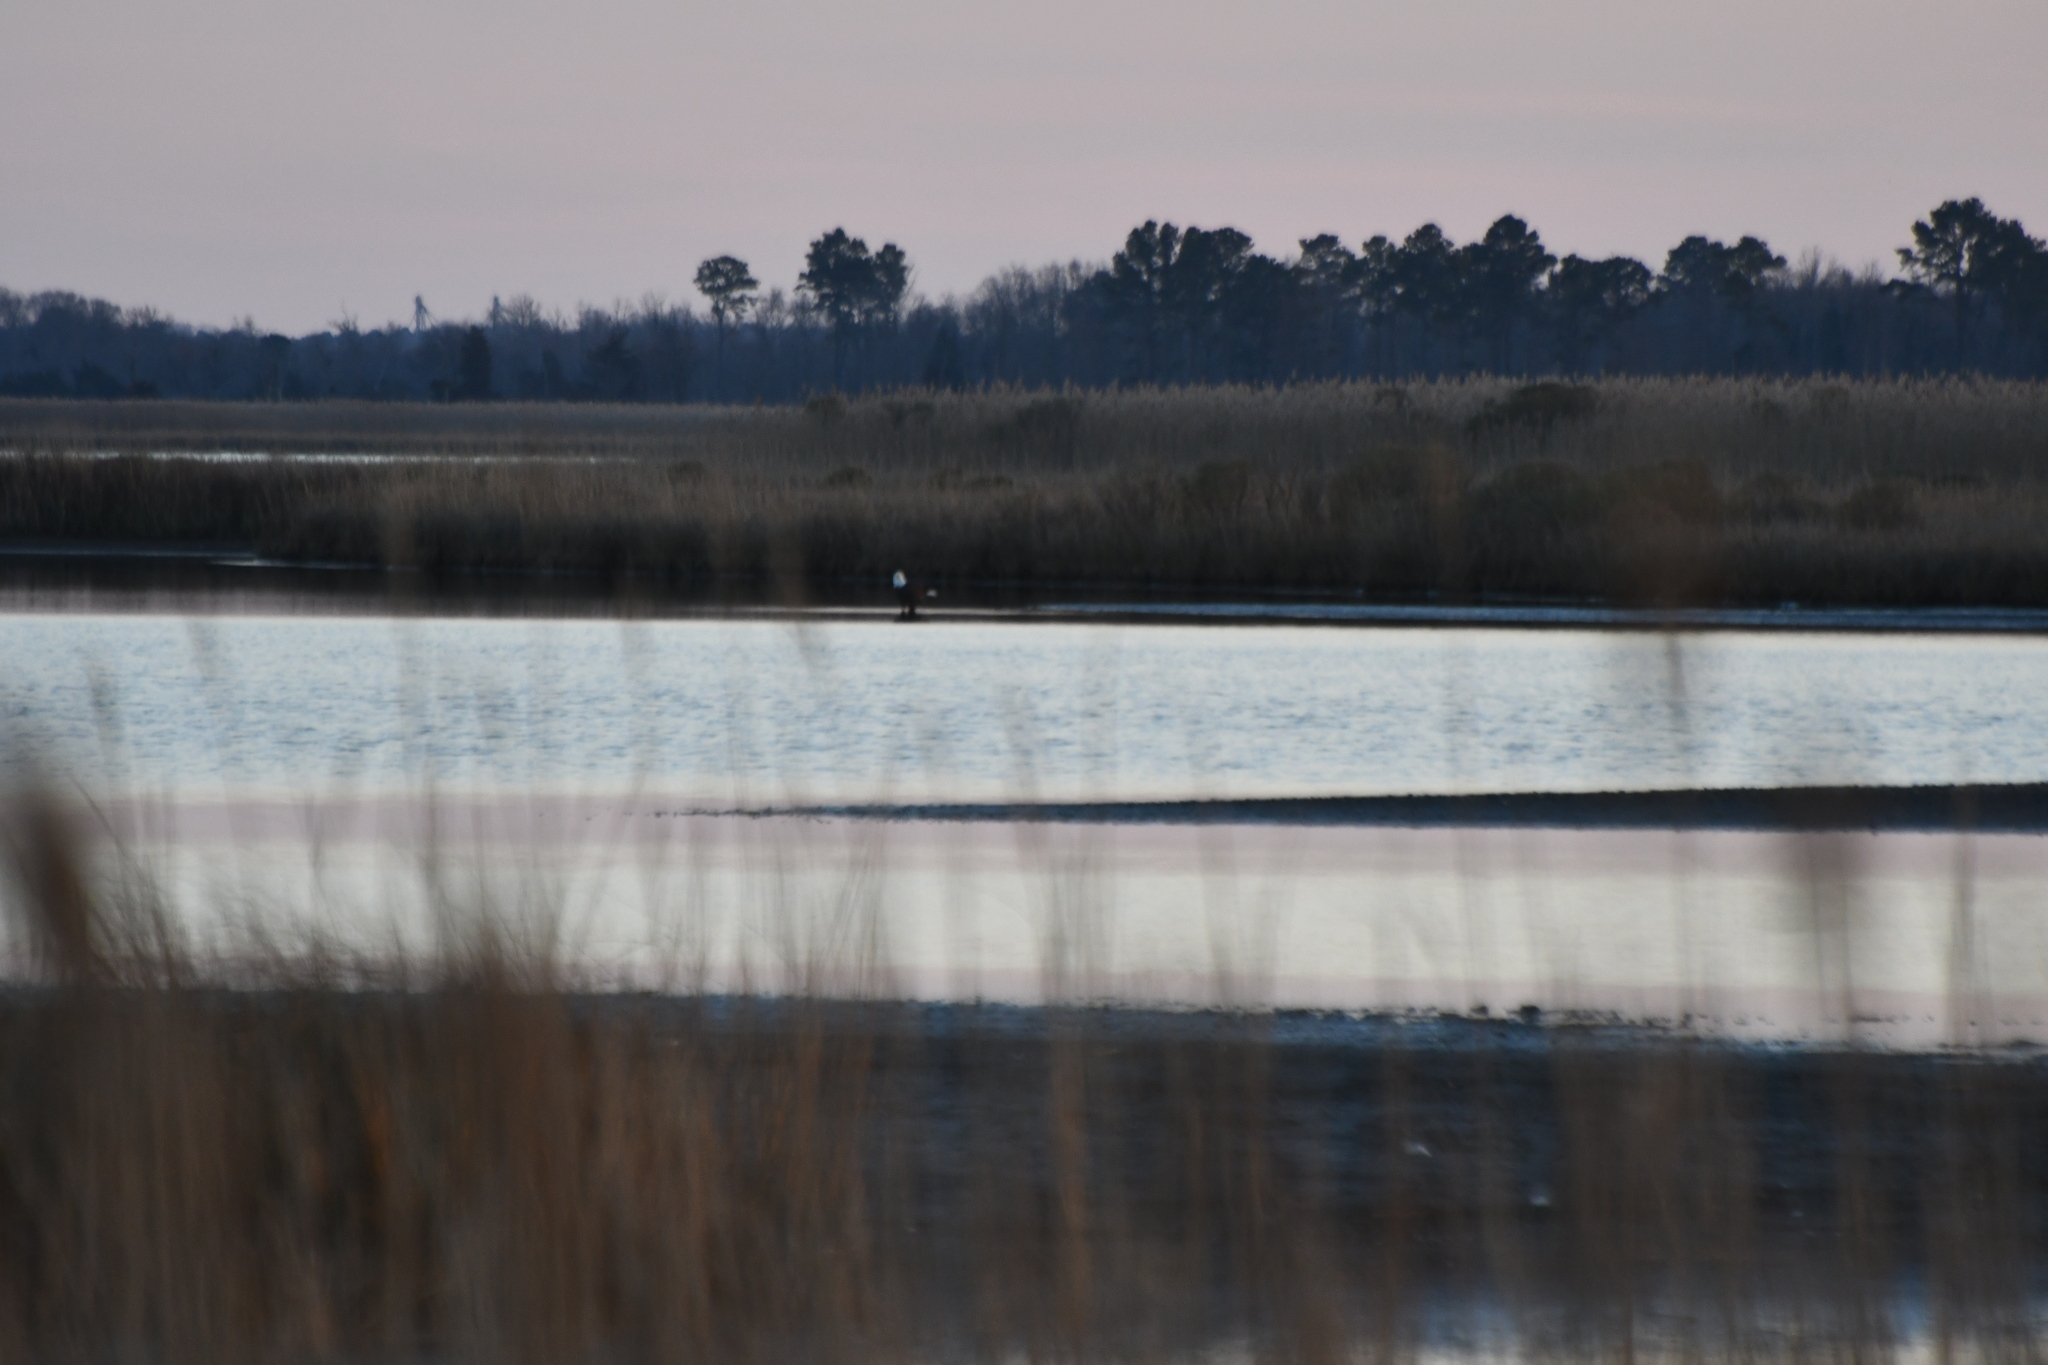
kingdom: Animalia
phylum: Chordata
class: Aves
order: Accipitriformes
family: Accipitridae
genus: Haliaeetus
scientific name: Haliaeetus leucocephalus
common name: Bald eagle
